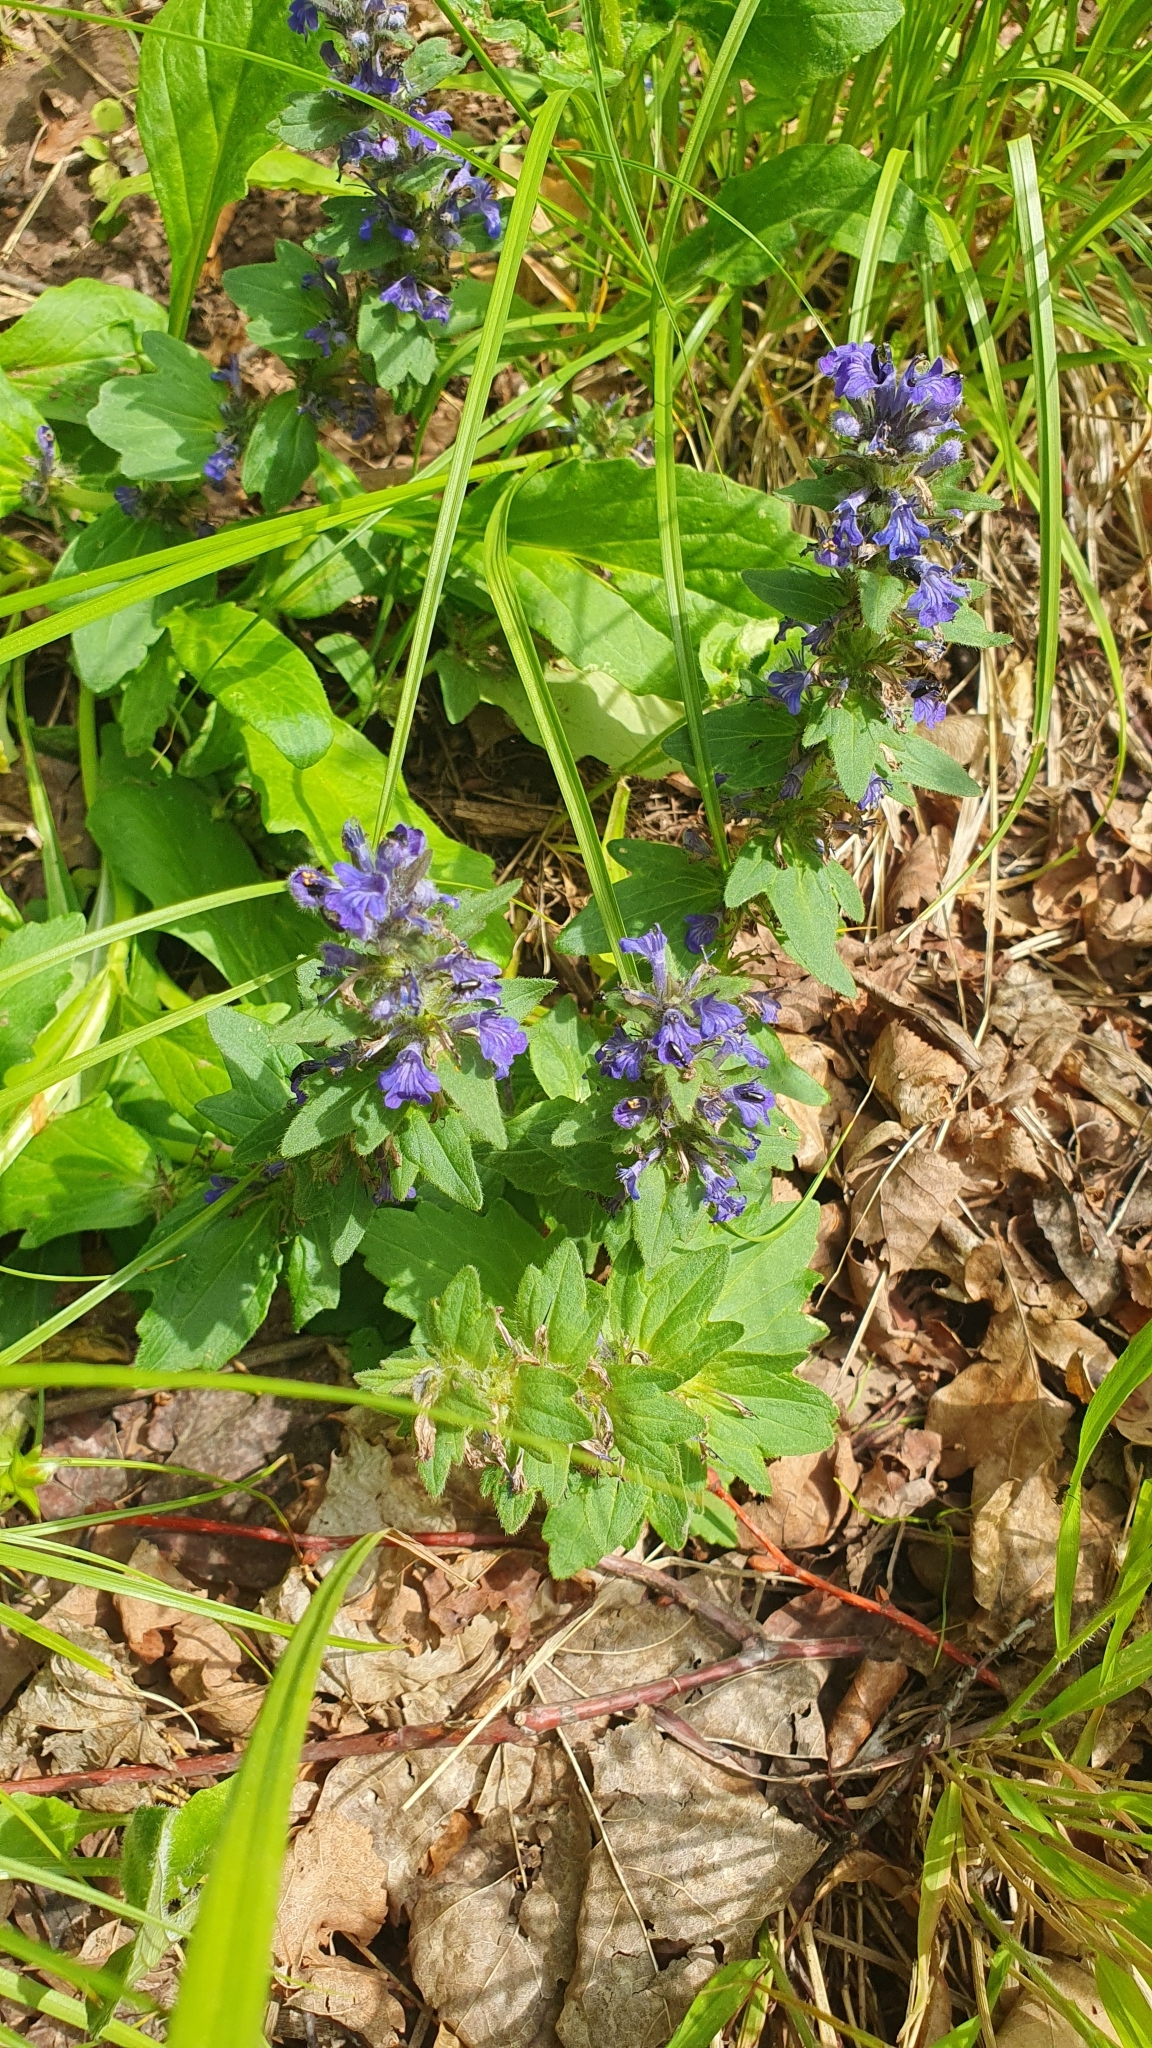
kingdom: Plantae
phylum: Tracheophyta
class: Magnoliopsida
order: Lamiales
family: Lamiaceae
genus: Ajuga
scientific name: Ajuga genevensis
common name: Blue bugle
